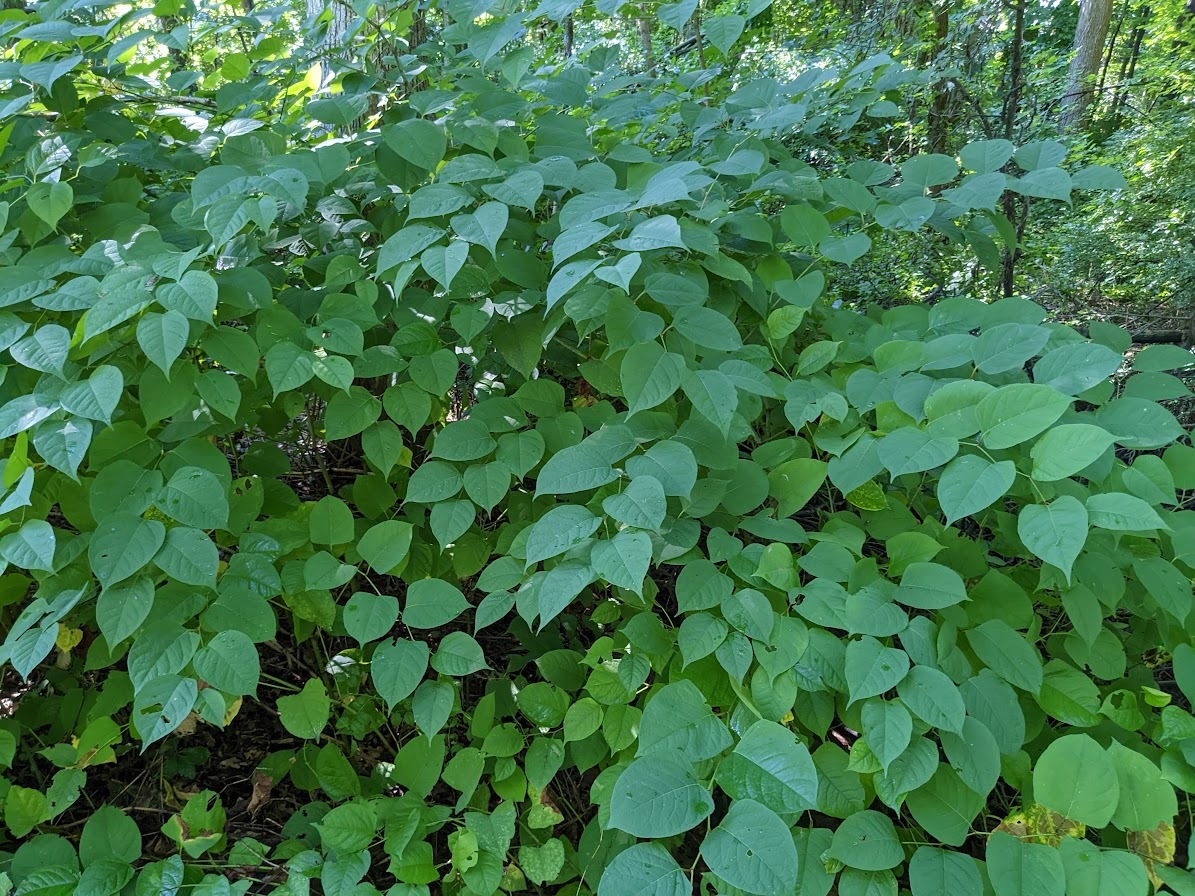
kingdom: Plantae
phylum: Tracheophyta
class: Magnoliopsida
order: Caryophyllales
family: Polygonaceae
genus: Reynoutria
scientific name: Reynoutria japonica
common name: Japanese knotweed
